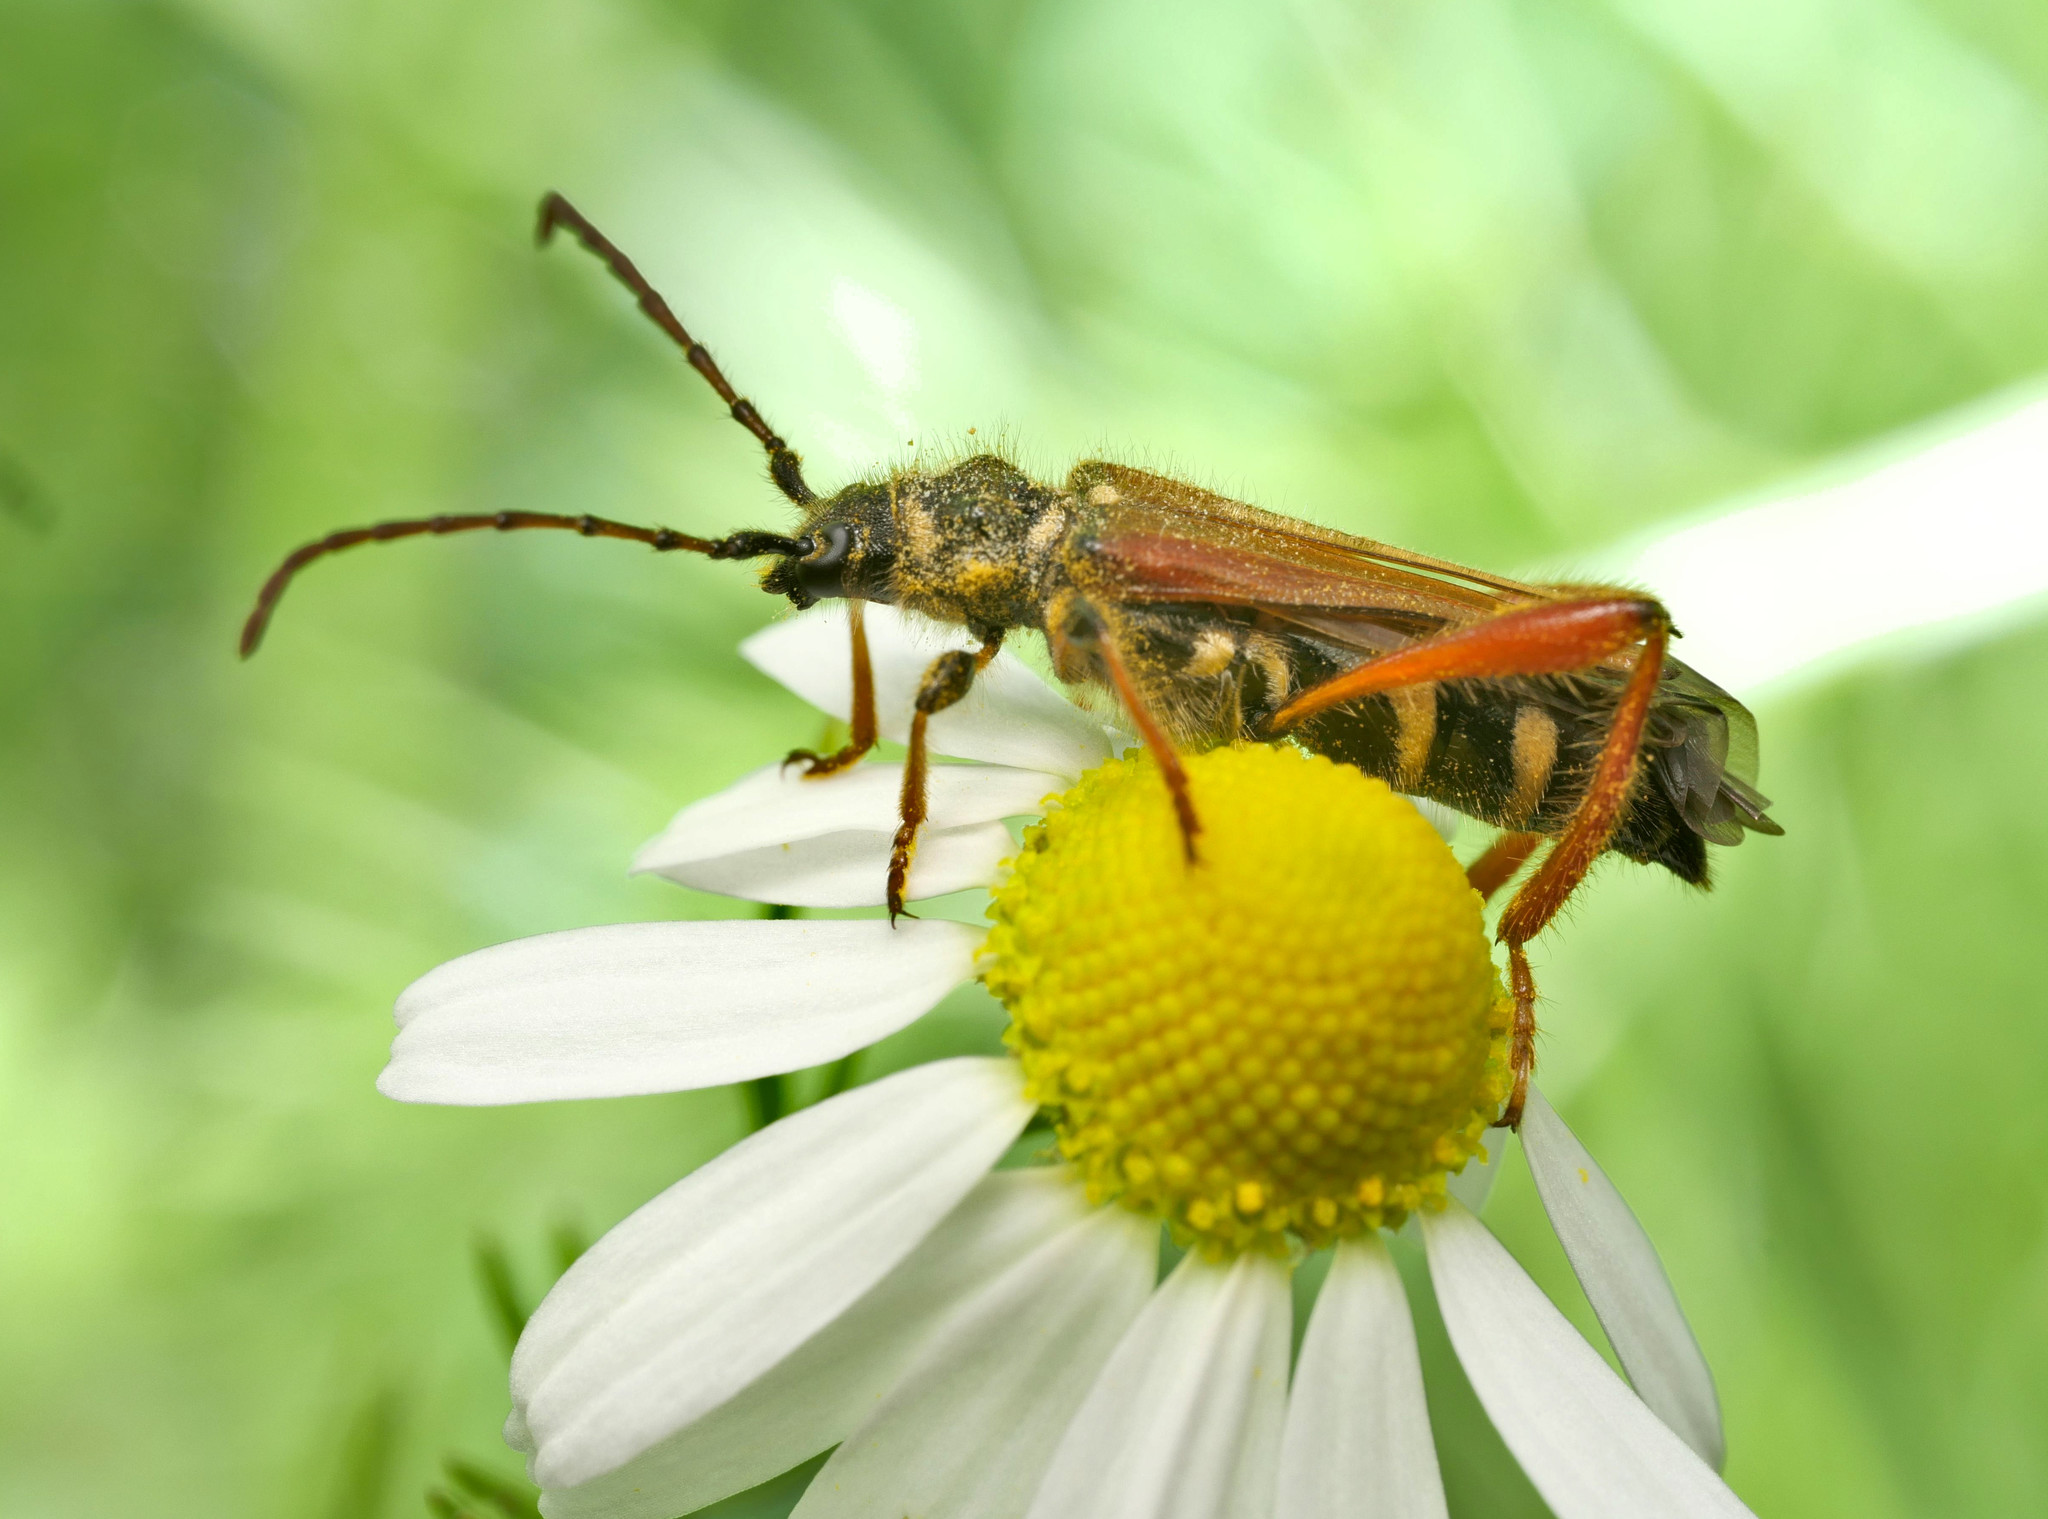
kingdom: Animalia
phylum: Arthropoda
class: Insecta
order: Coleoptera
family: Cerambycidae
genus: Stenopterus
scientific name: Stenopterus rufus
